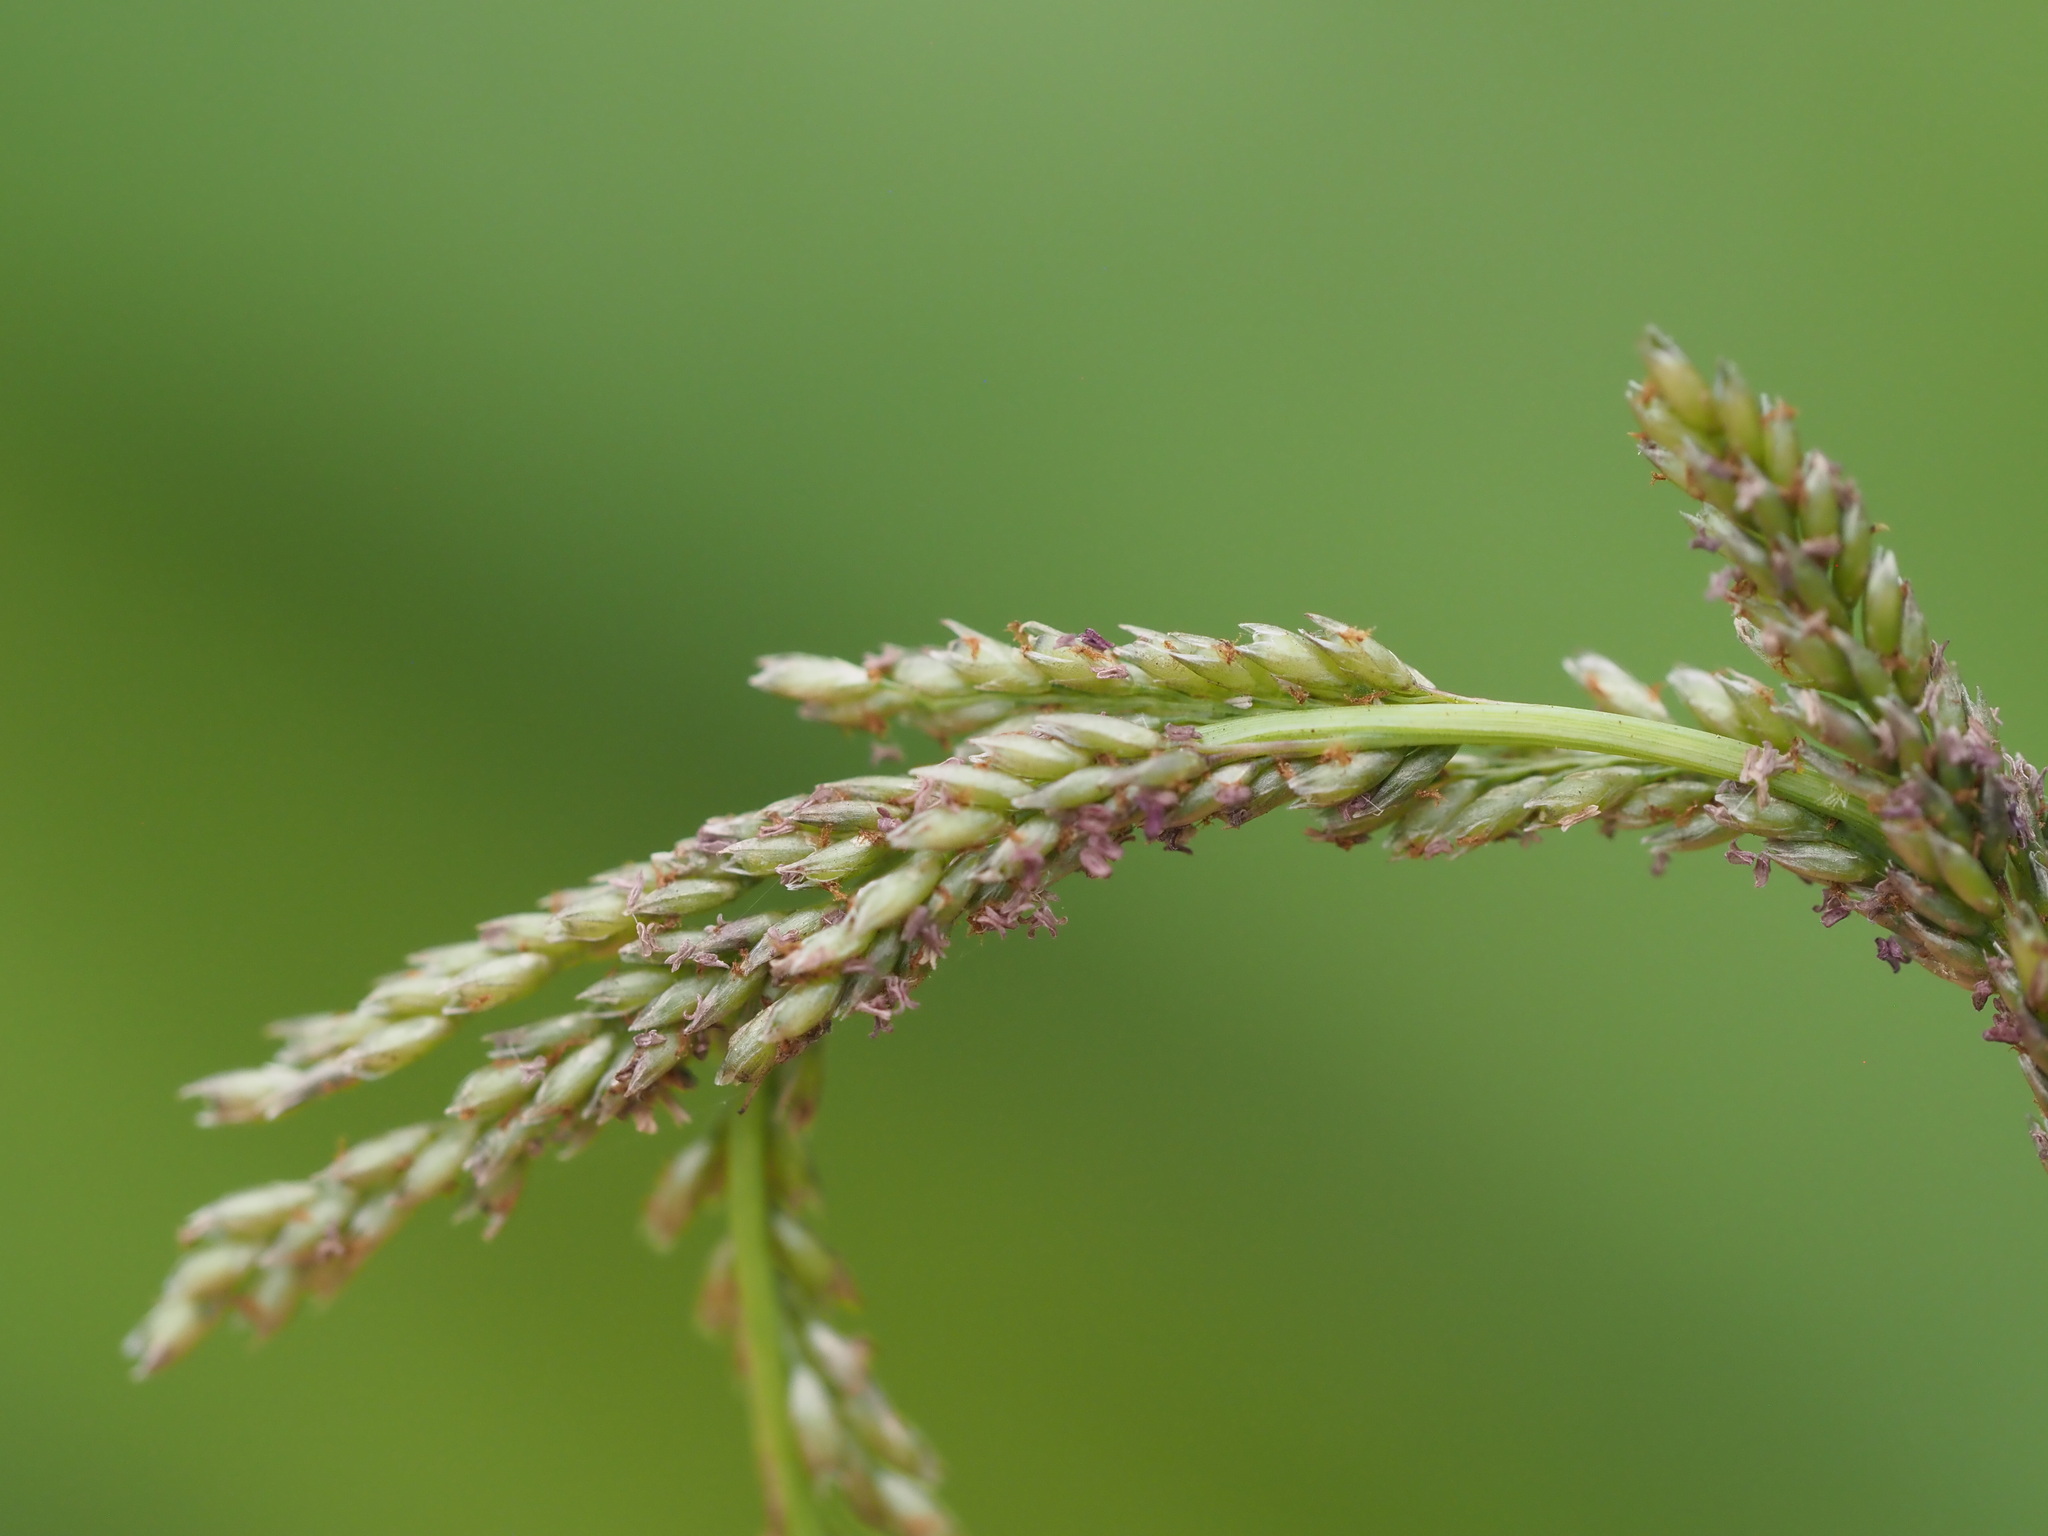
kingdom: Plantae
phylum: Tracheophyta
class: Liliopsida
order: Poales
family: Poaceae
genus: Sporobolus
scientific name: Sporobolus indicus
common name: Smut grass
